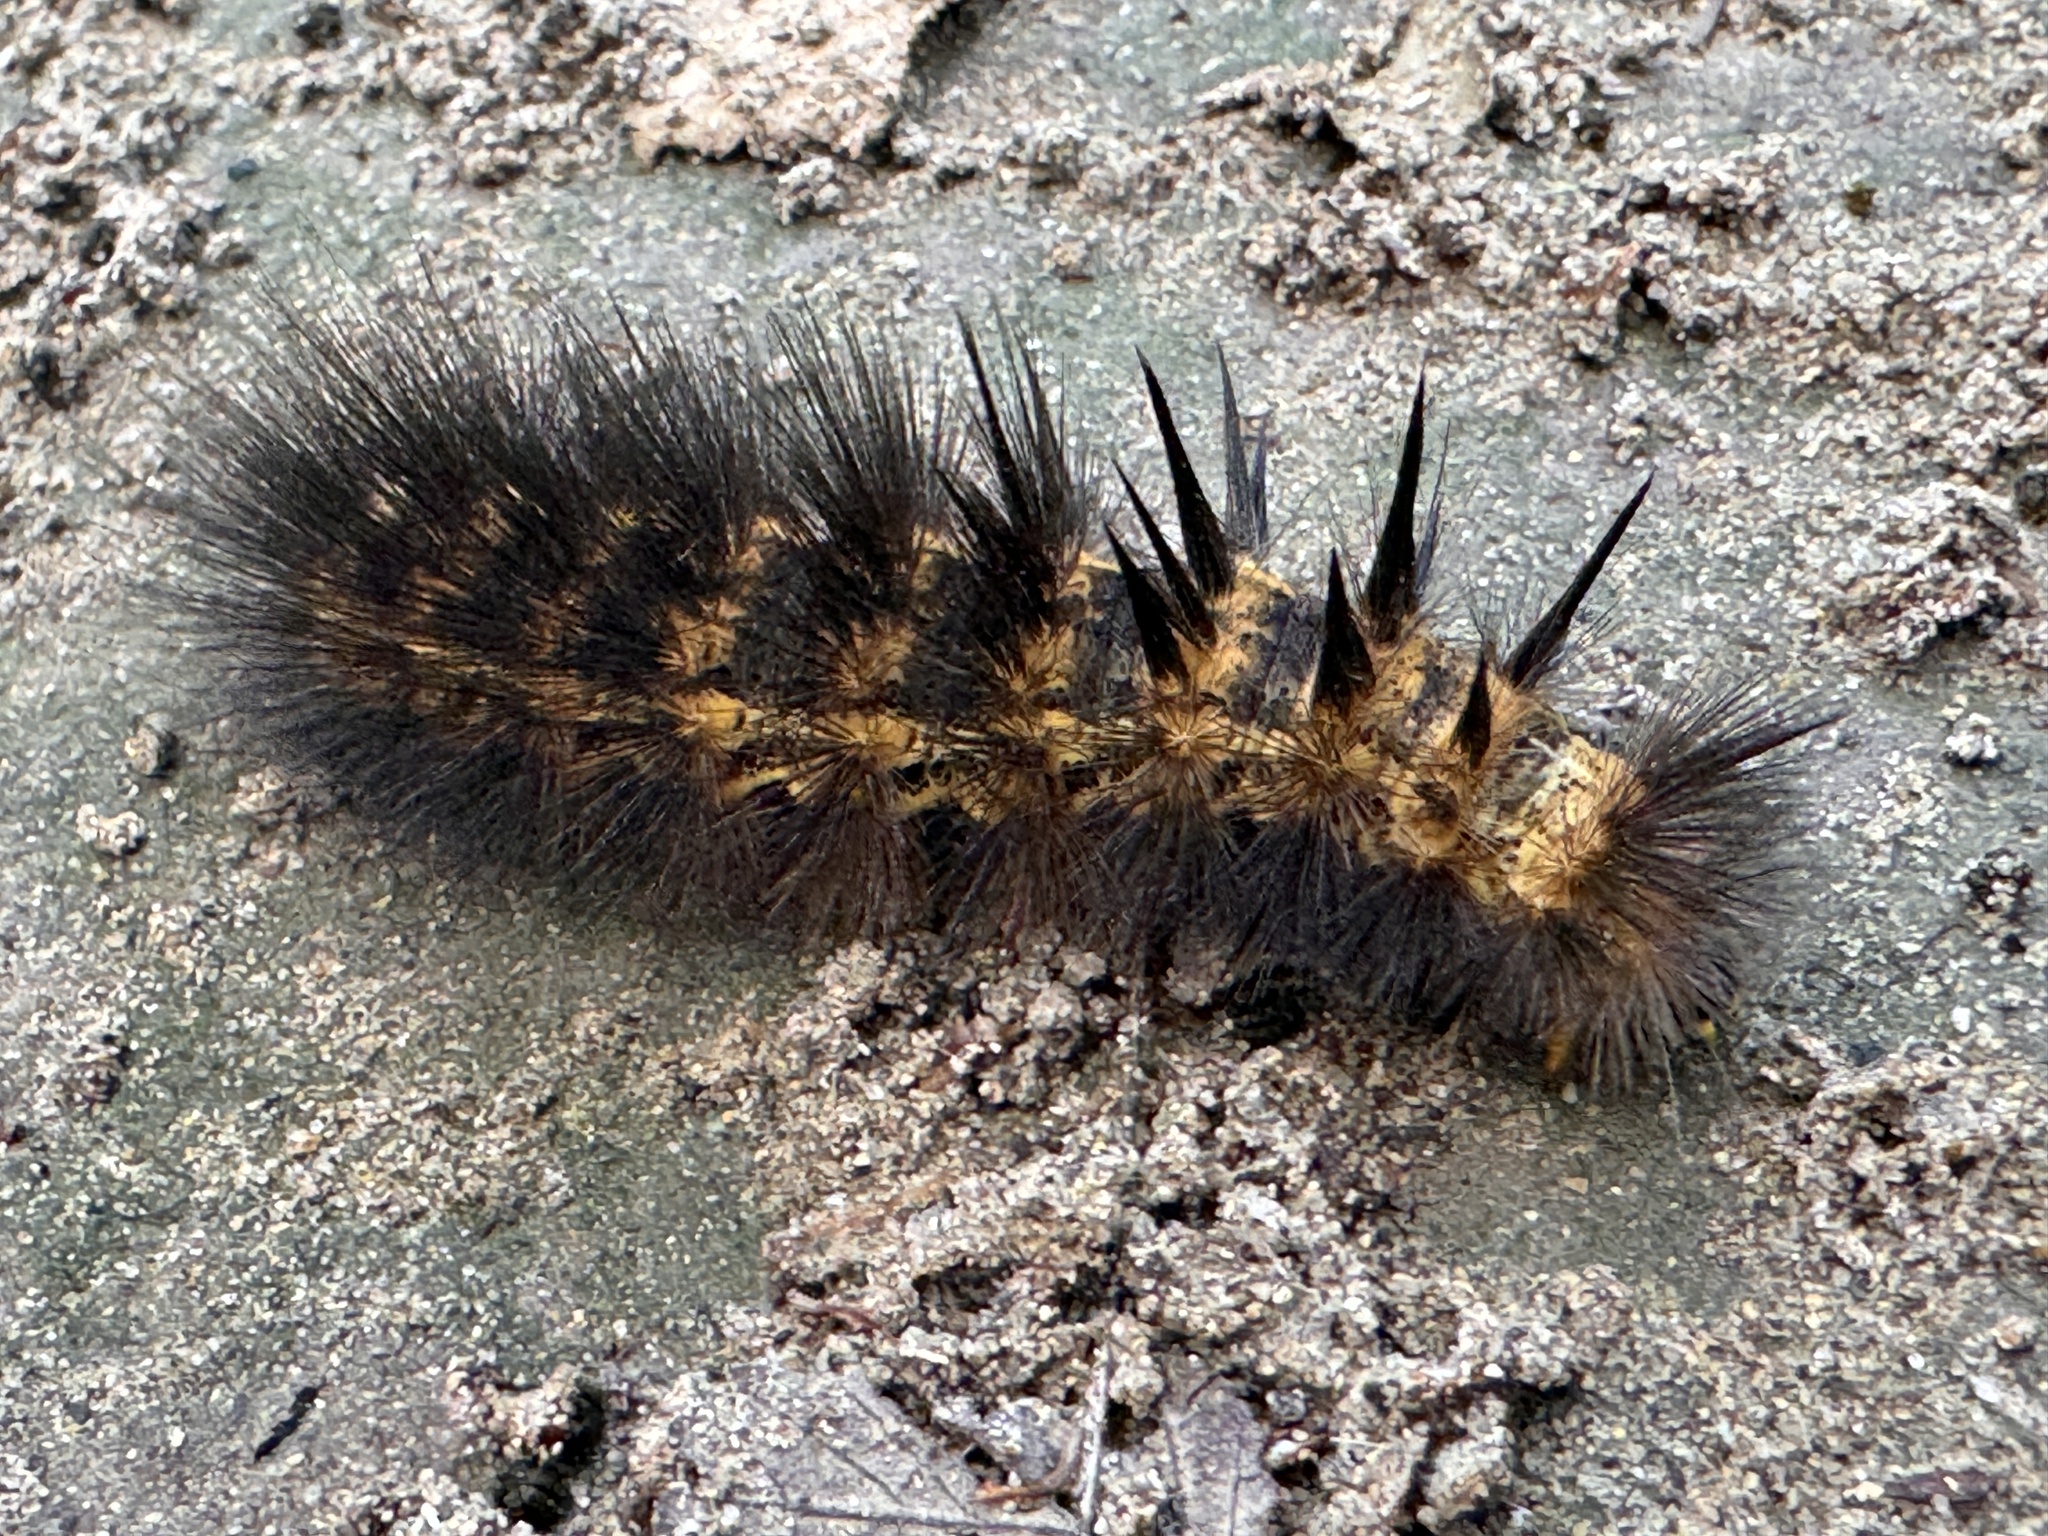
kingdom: Animalia
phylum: Arthropoda
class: Insecta
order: Lepidoptera
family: Erebidae
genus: Estigmene
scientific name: Estigmene acrea
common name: Salt marsh moth
